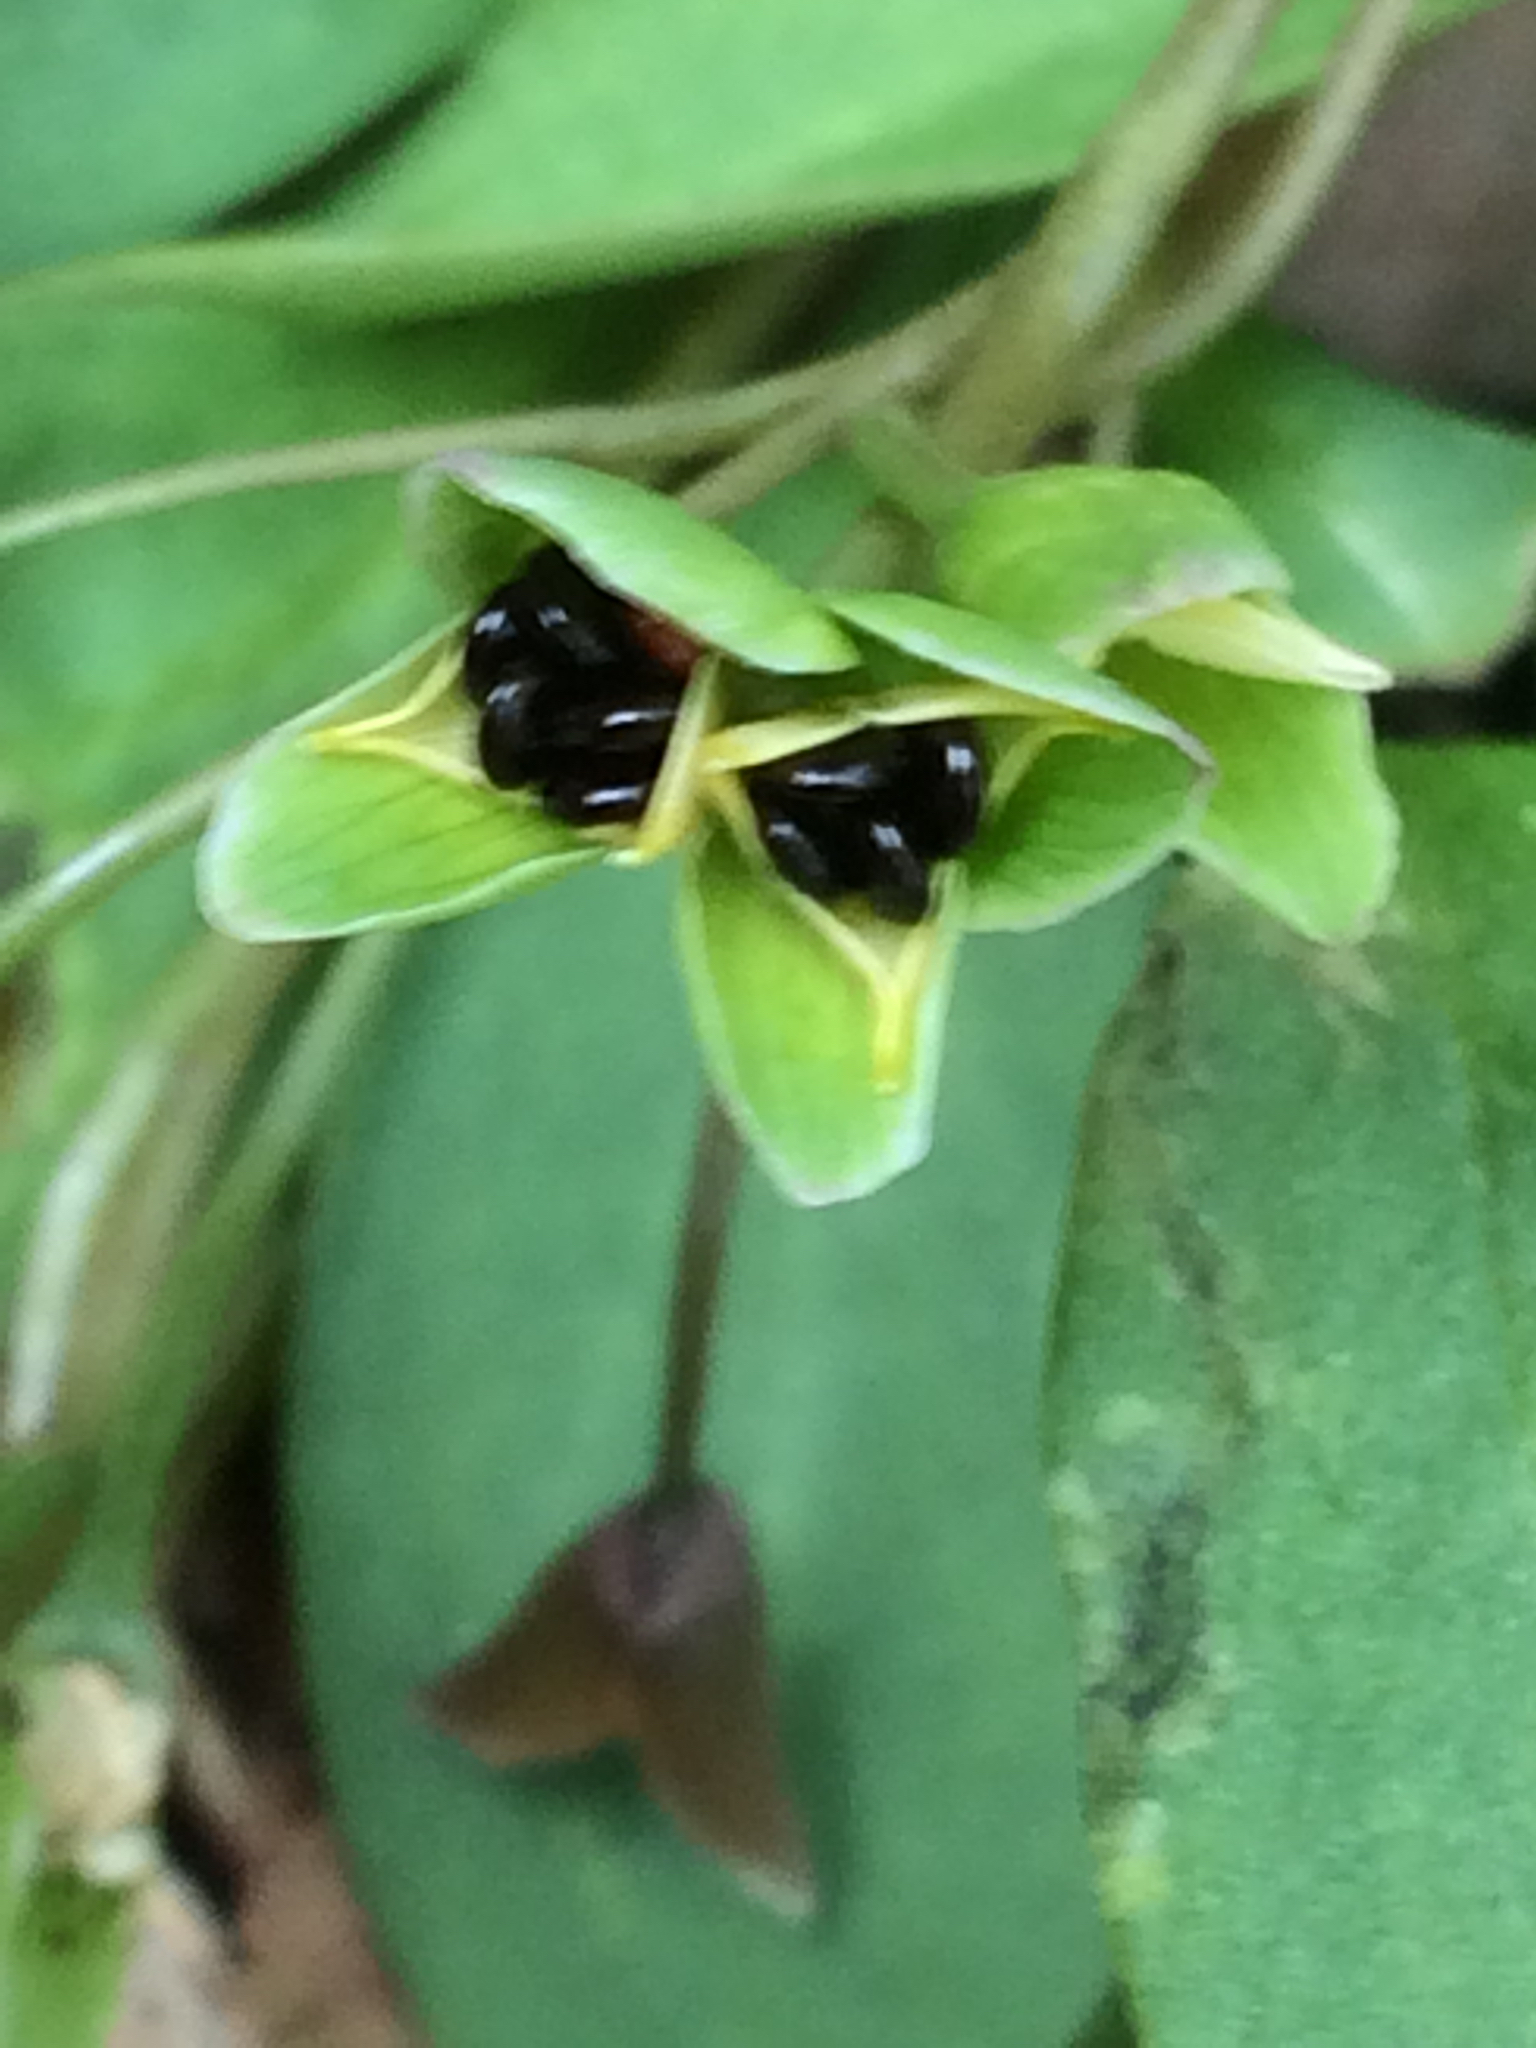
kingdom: Plantae
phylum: Tracheophyta
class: Magnoliopsida
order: Caryophyllales
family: Montiaceae
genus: Claytonia
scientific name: Claytonia caroliniana
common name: Carolina spring beauty
